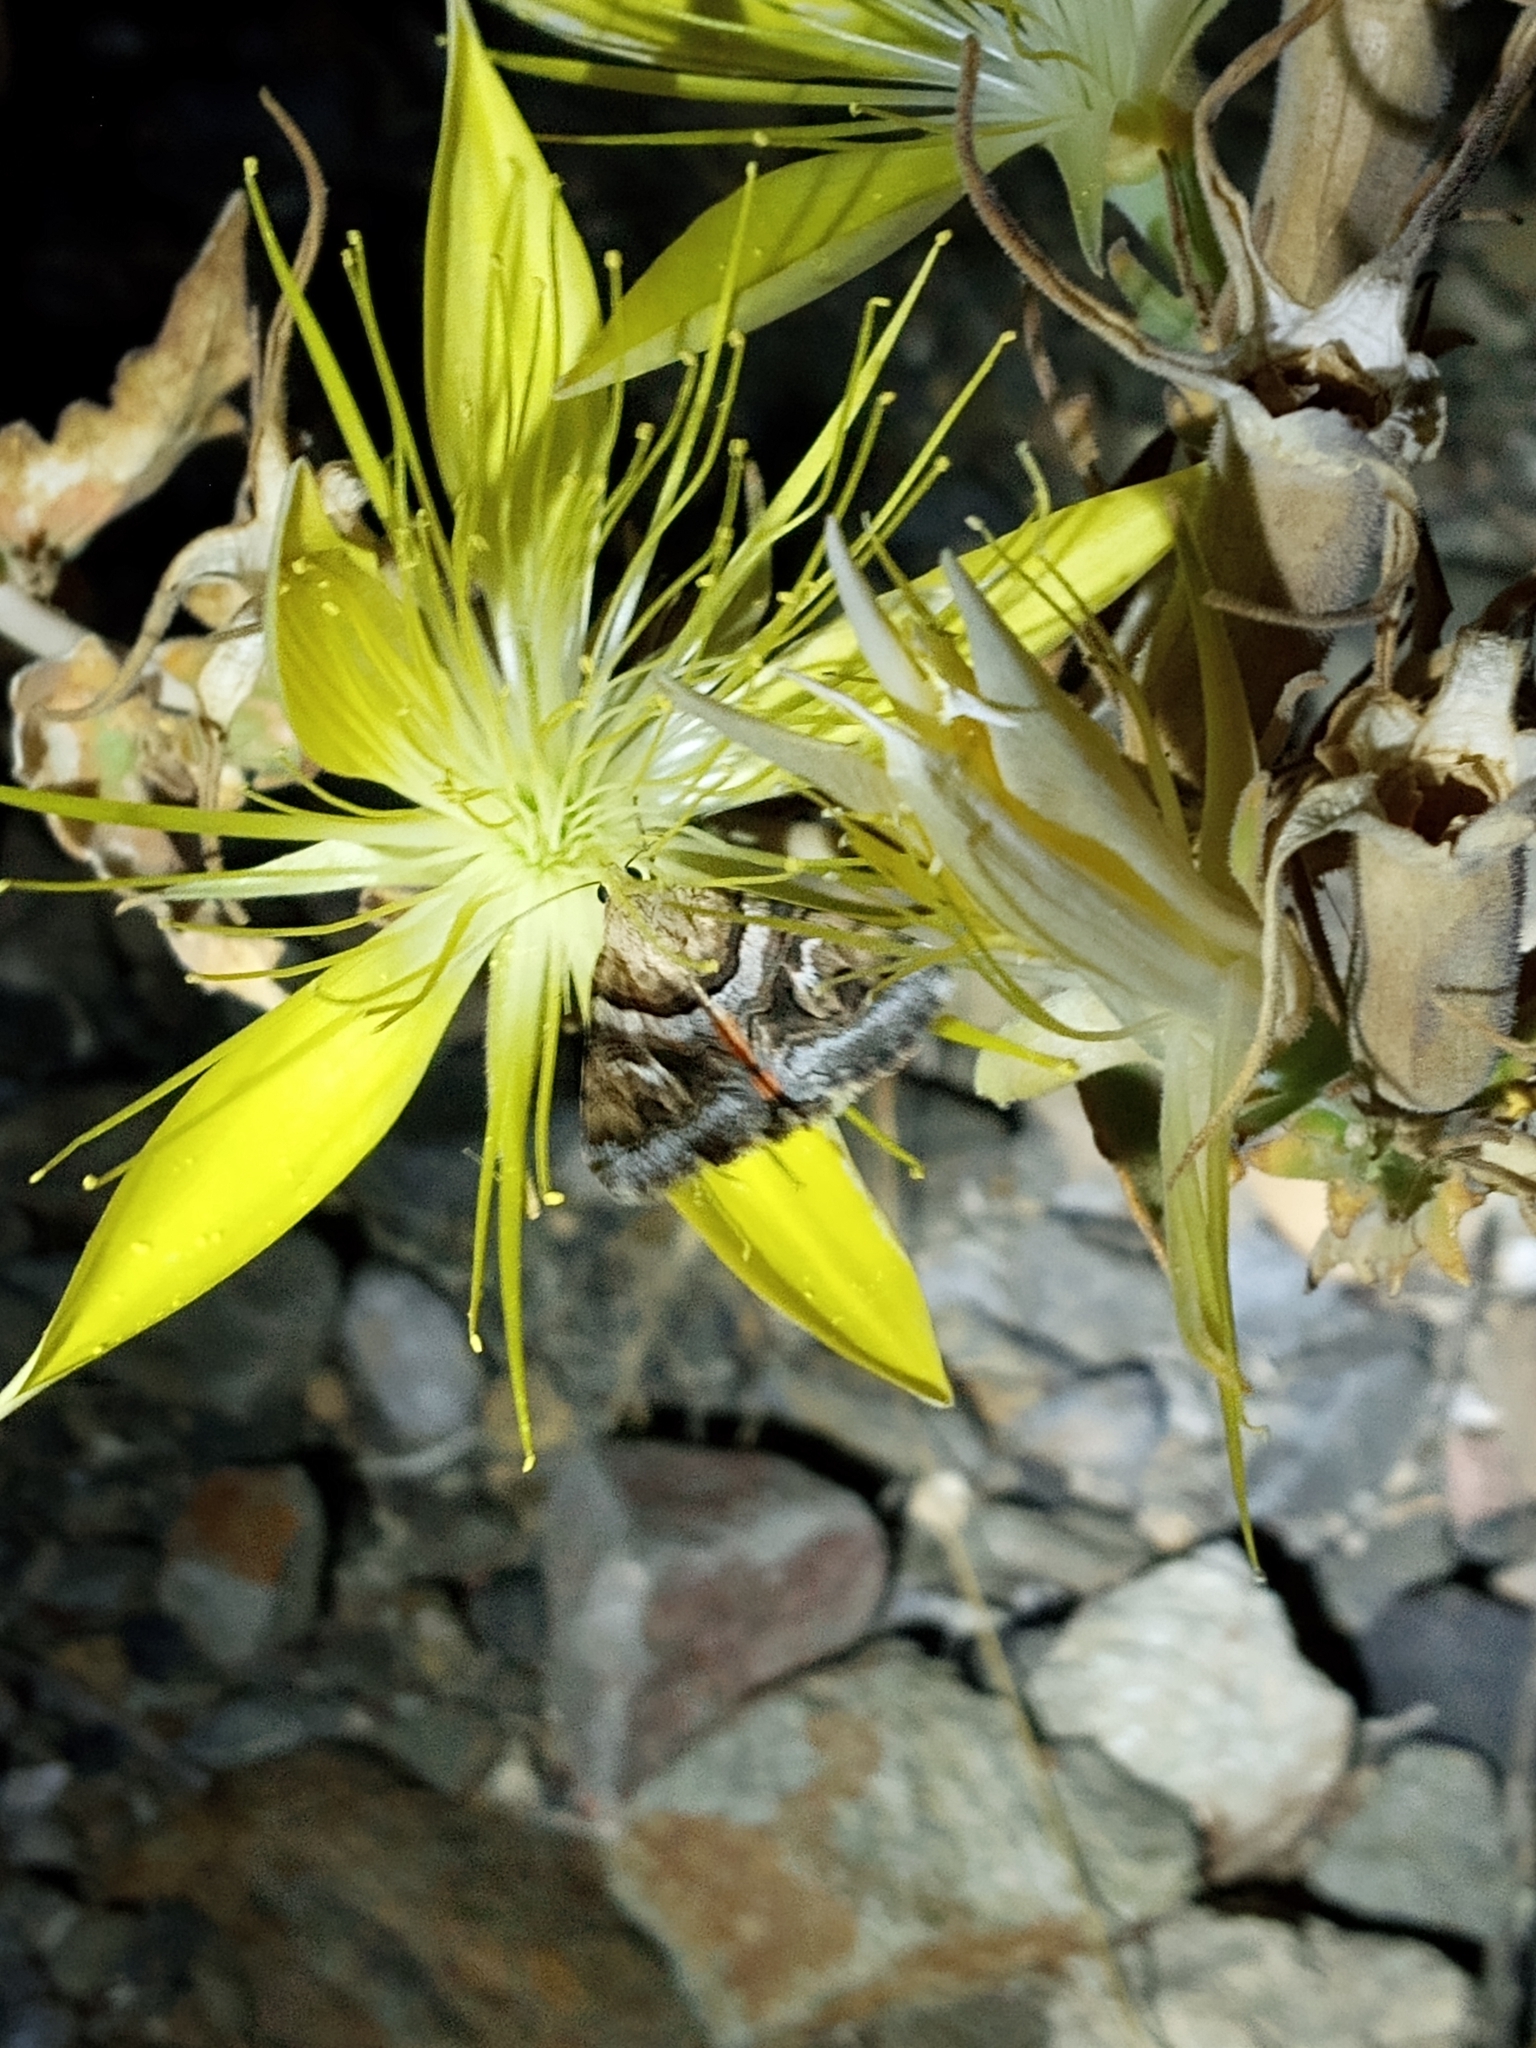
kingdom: Animalia
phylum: Arthropoda
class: Insecta
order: Lepidoptera
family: Erebidae
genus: Drasteria
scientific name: Drasteria howlandii
